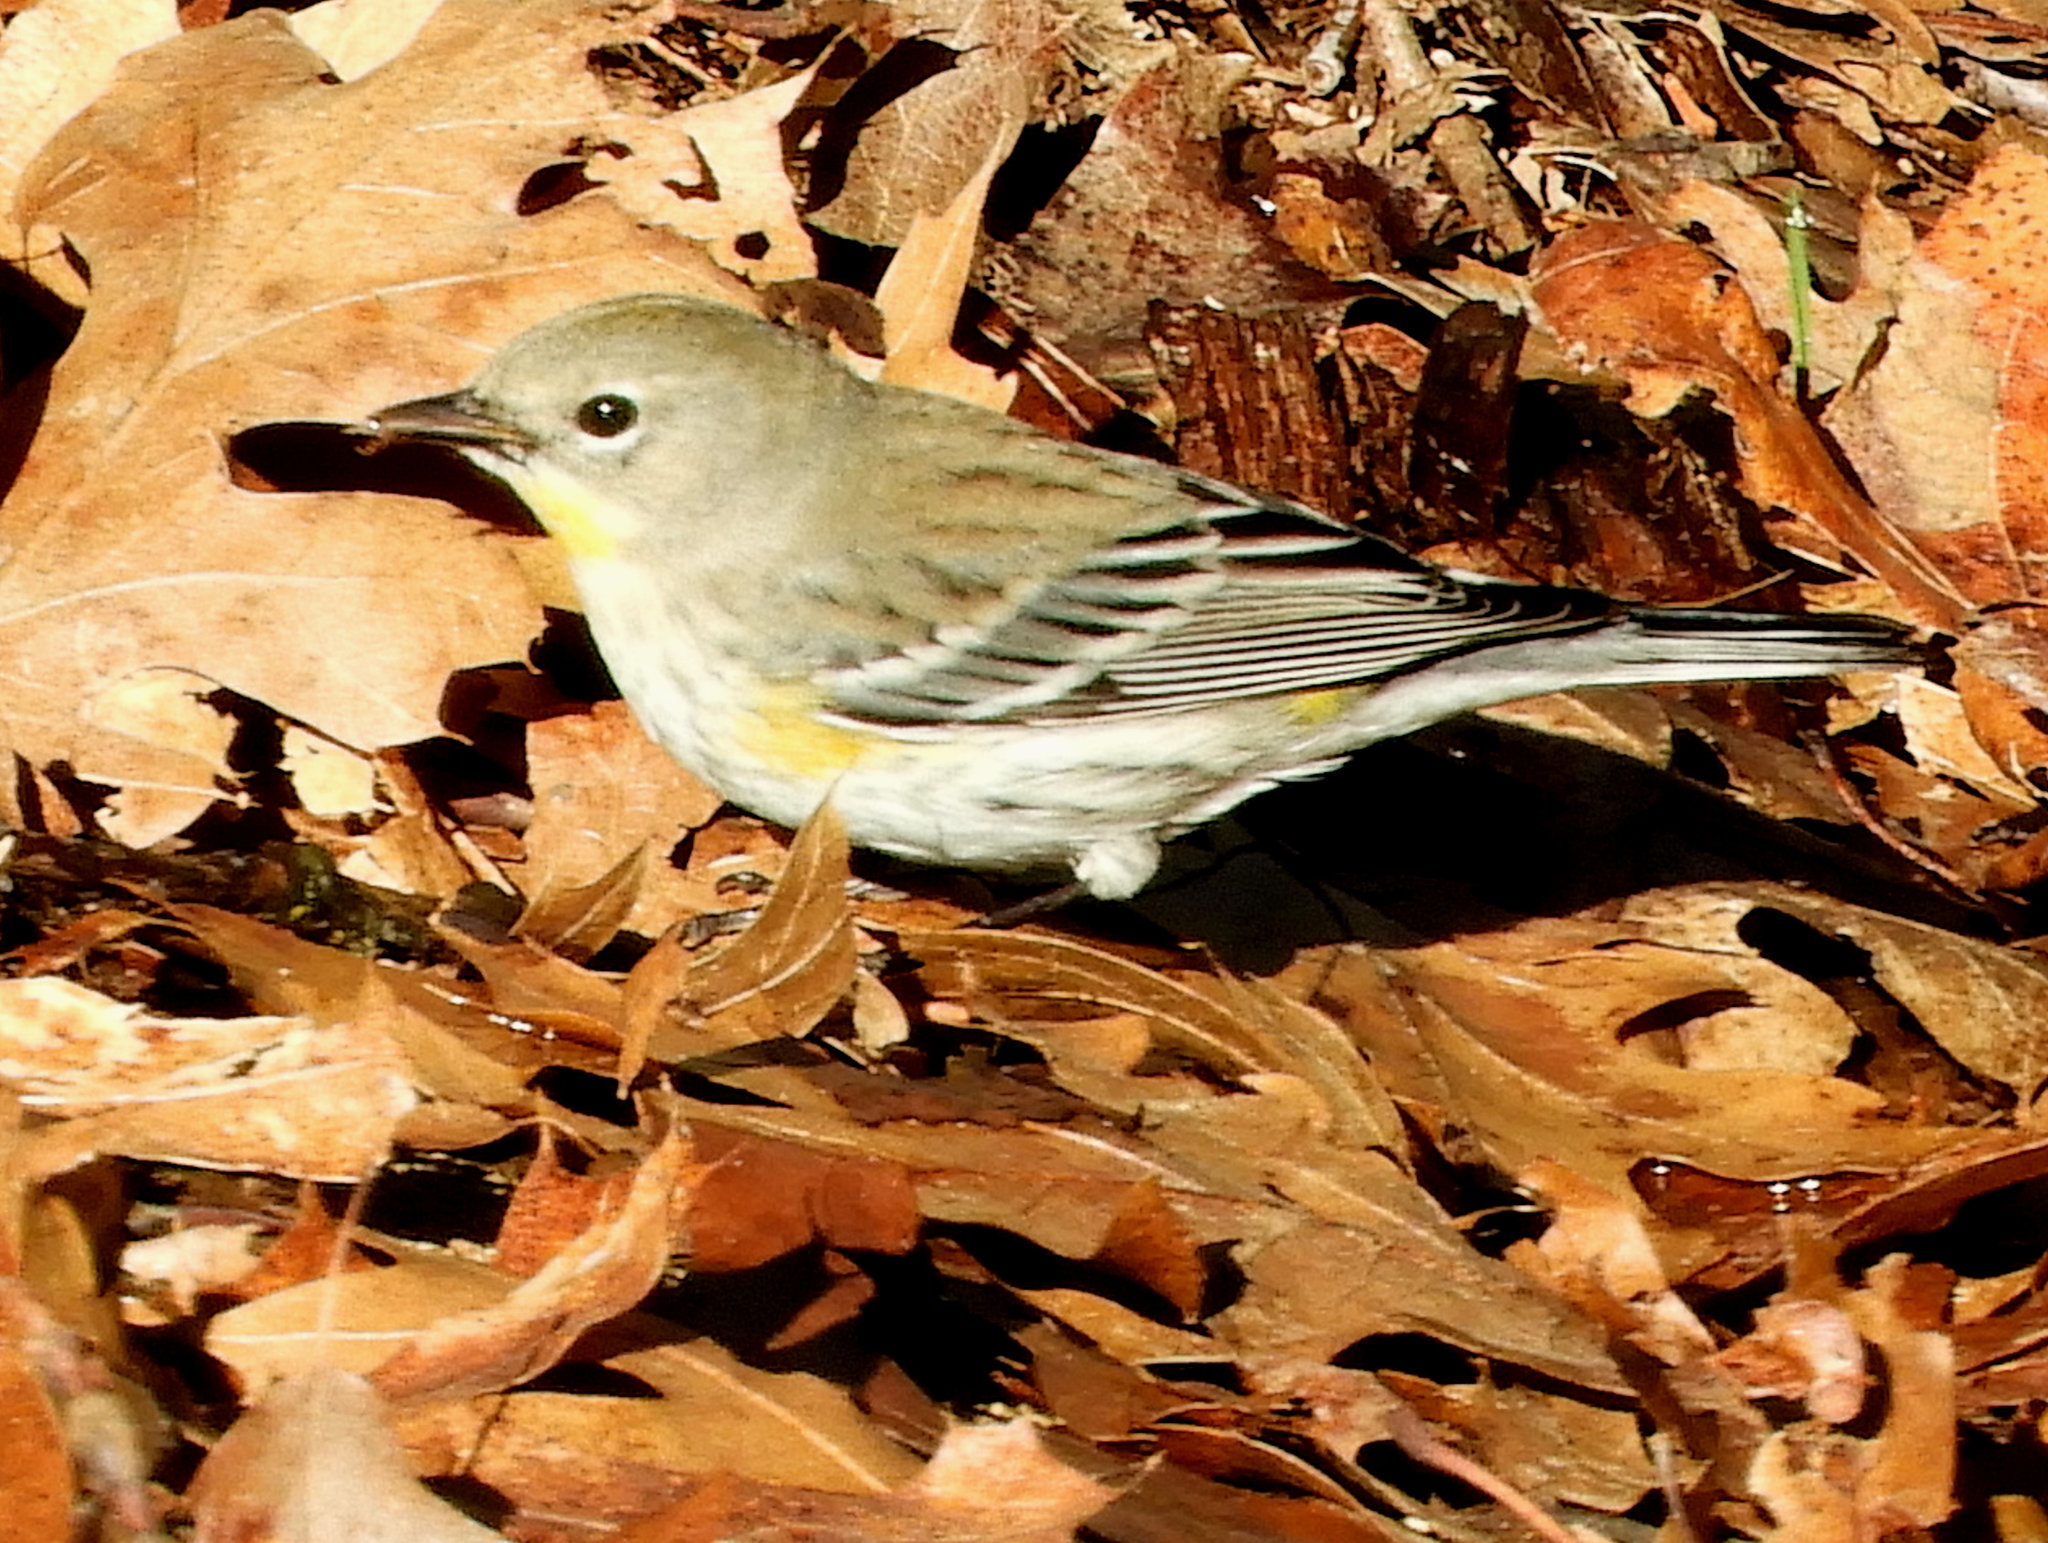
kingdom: Animalia
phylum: Chordata
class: Aves
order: Passeriformes
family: Parulidae
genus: Setophaga
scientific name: Setophaga auduboni
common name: Audubon's warbler
